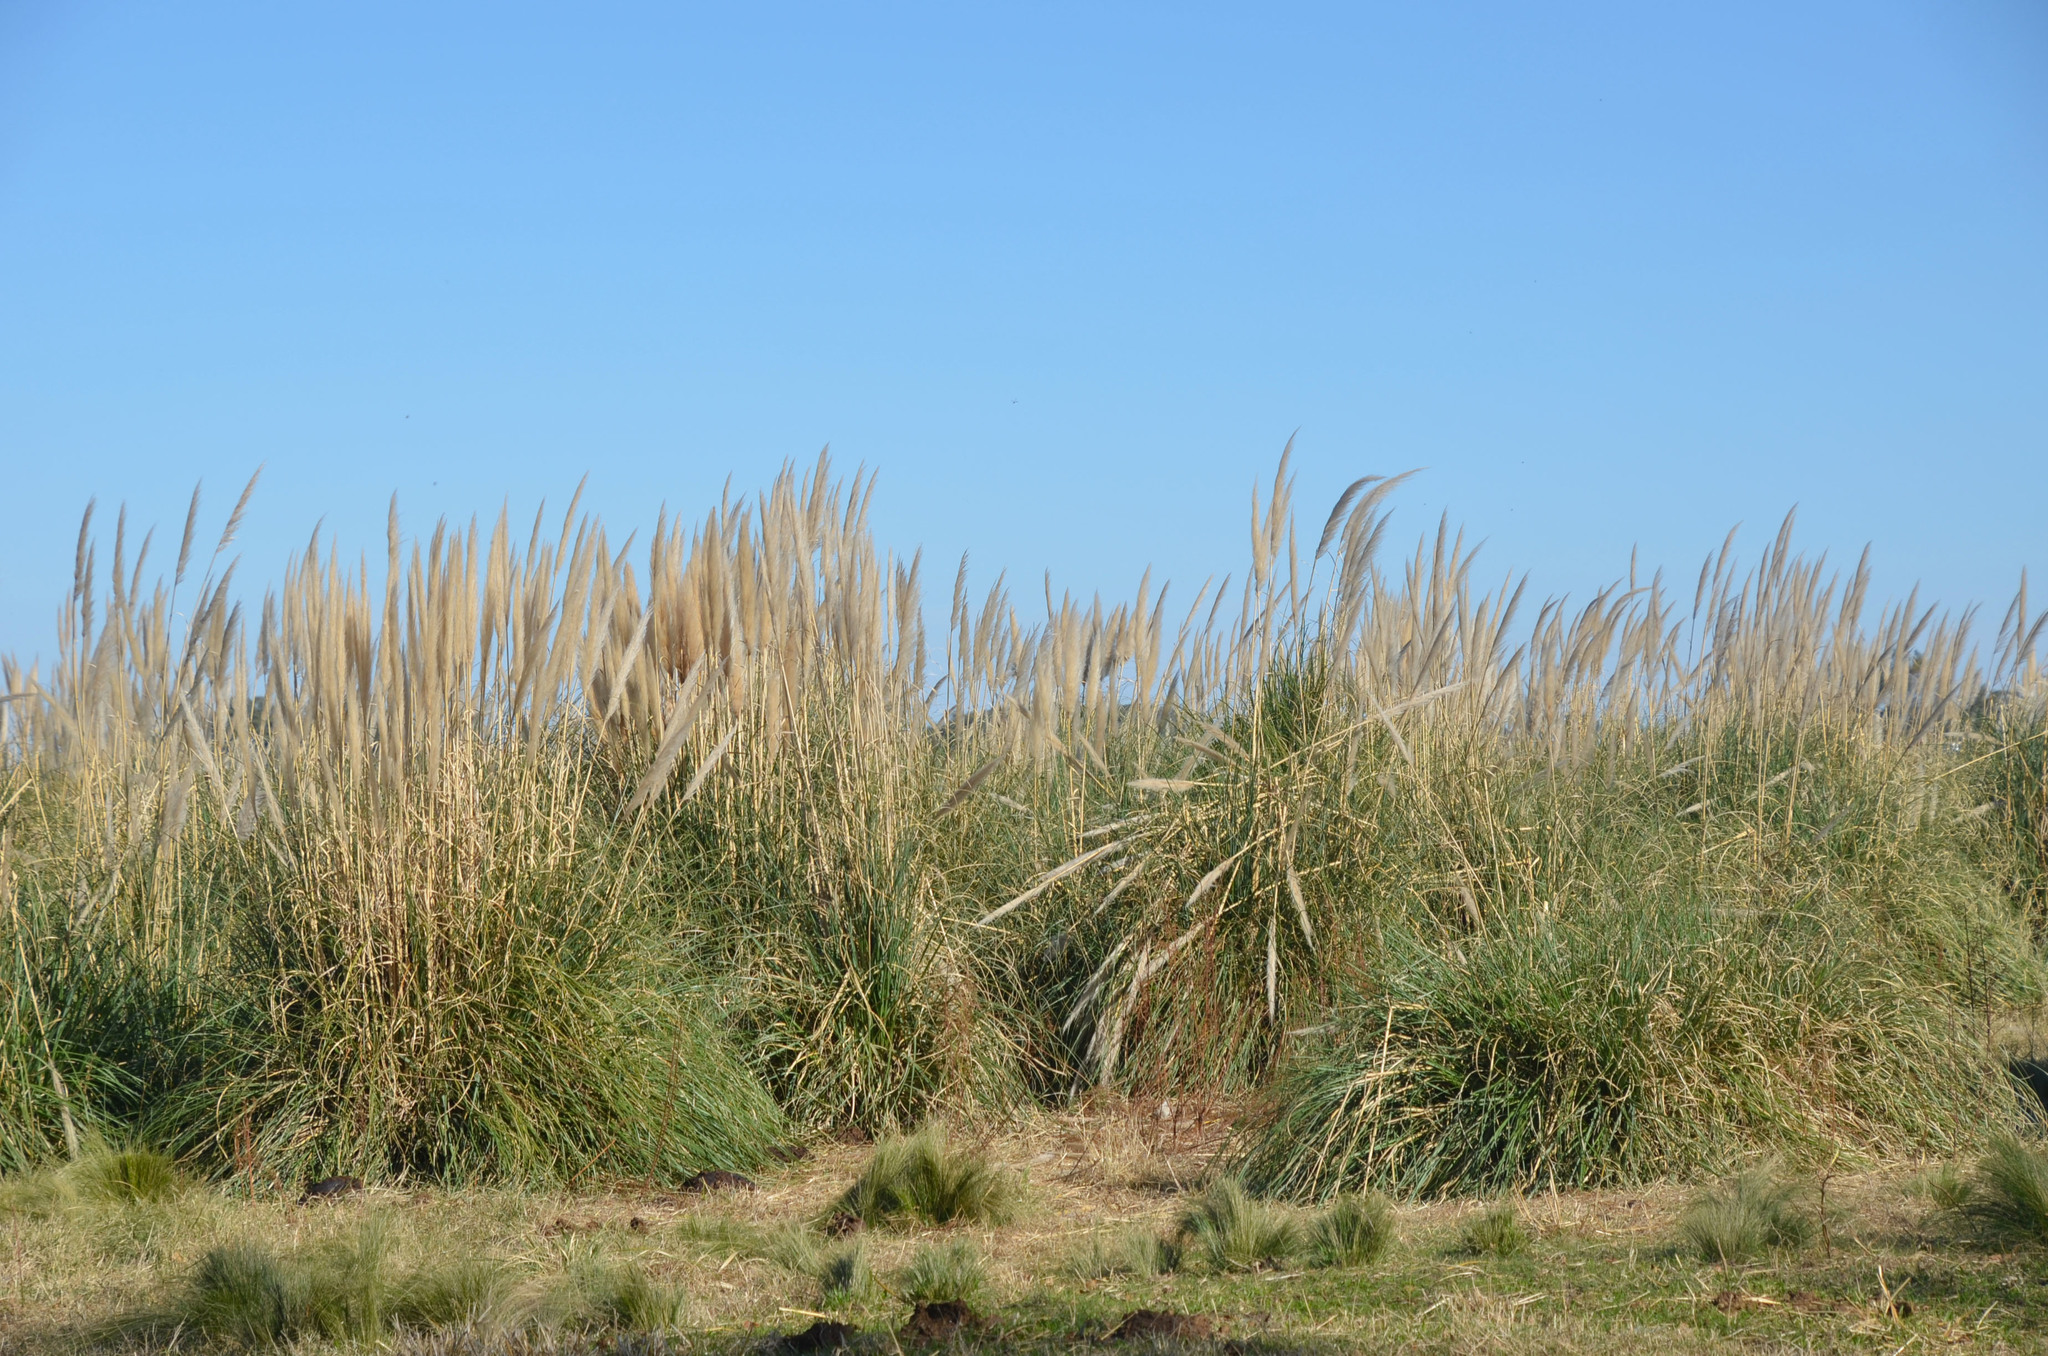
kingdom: Plantae
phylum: Tracheophyta
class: Liliopsida
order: Poales
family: Poaceae
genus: Cortaderia
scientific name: Cortaderia selloana
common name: Uruguayan pampas grass
